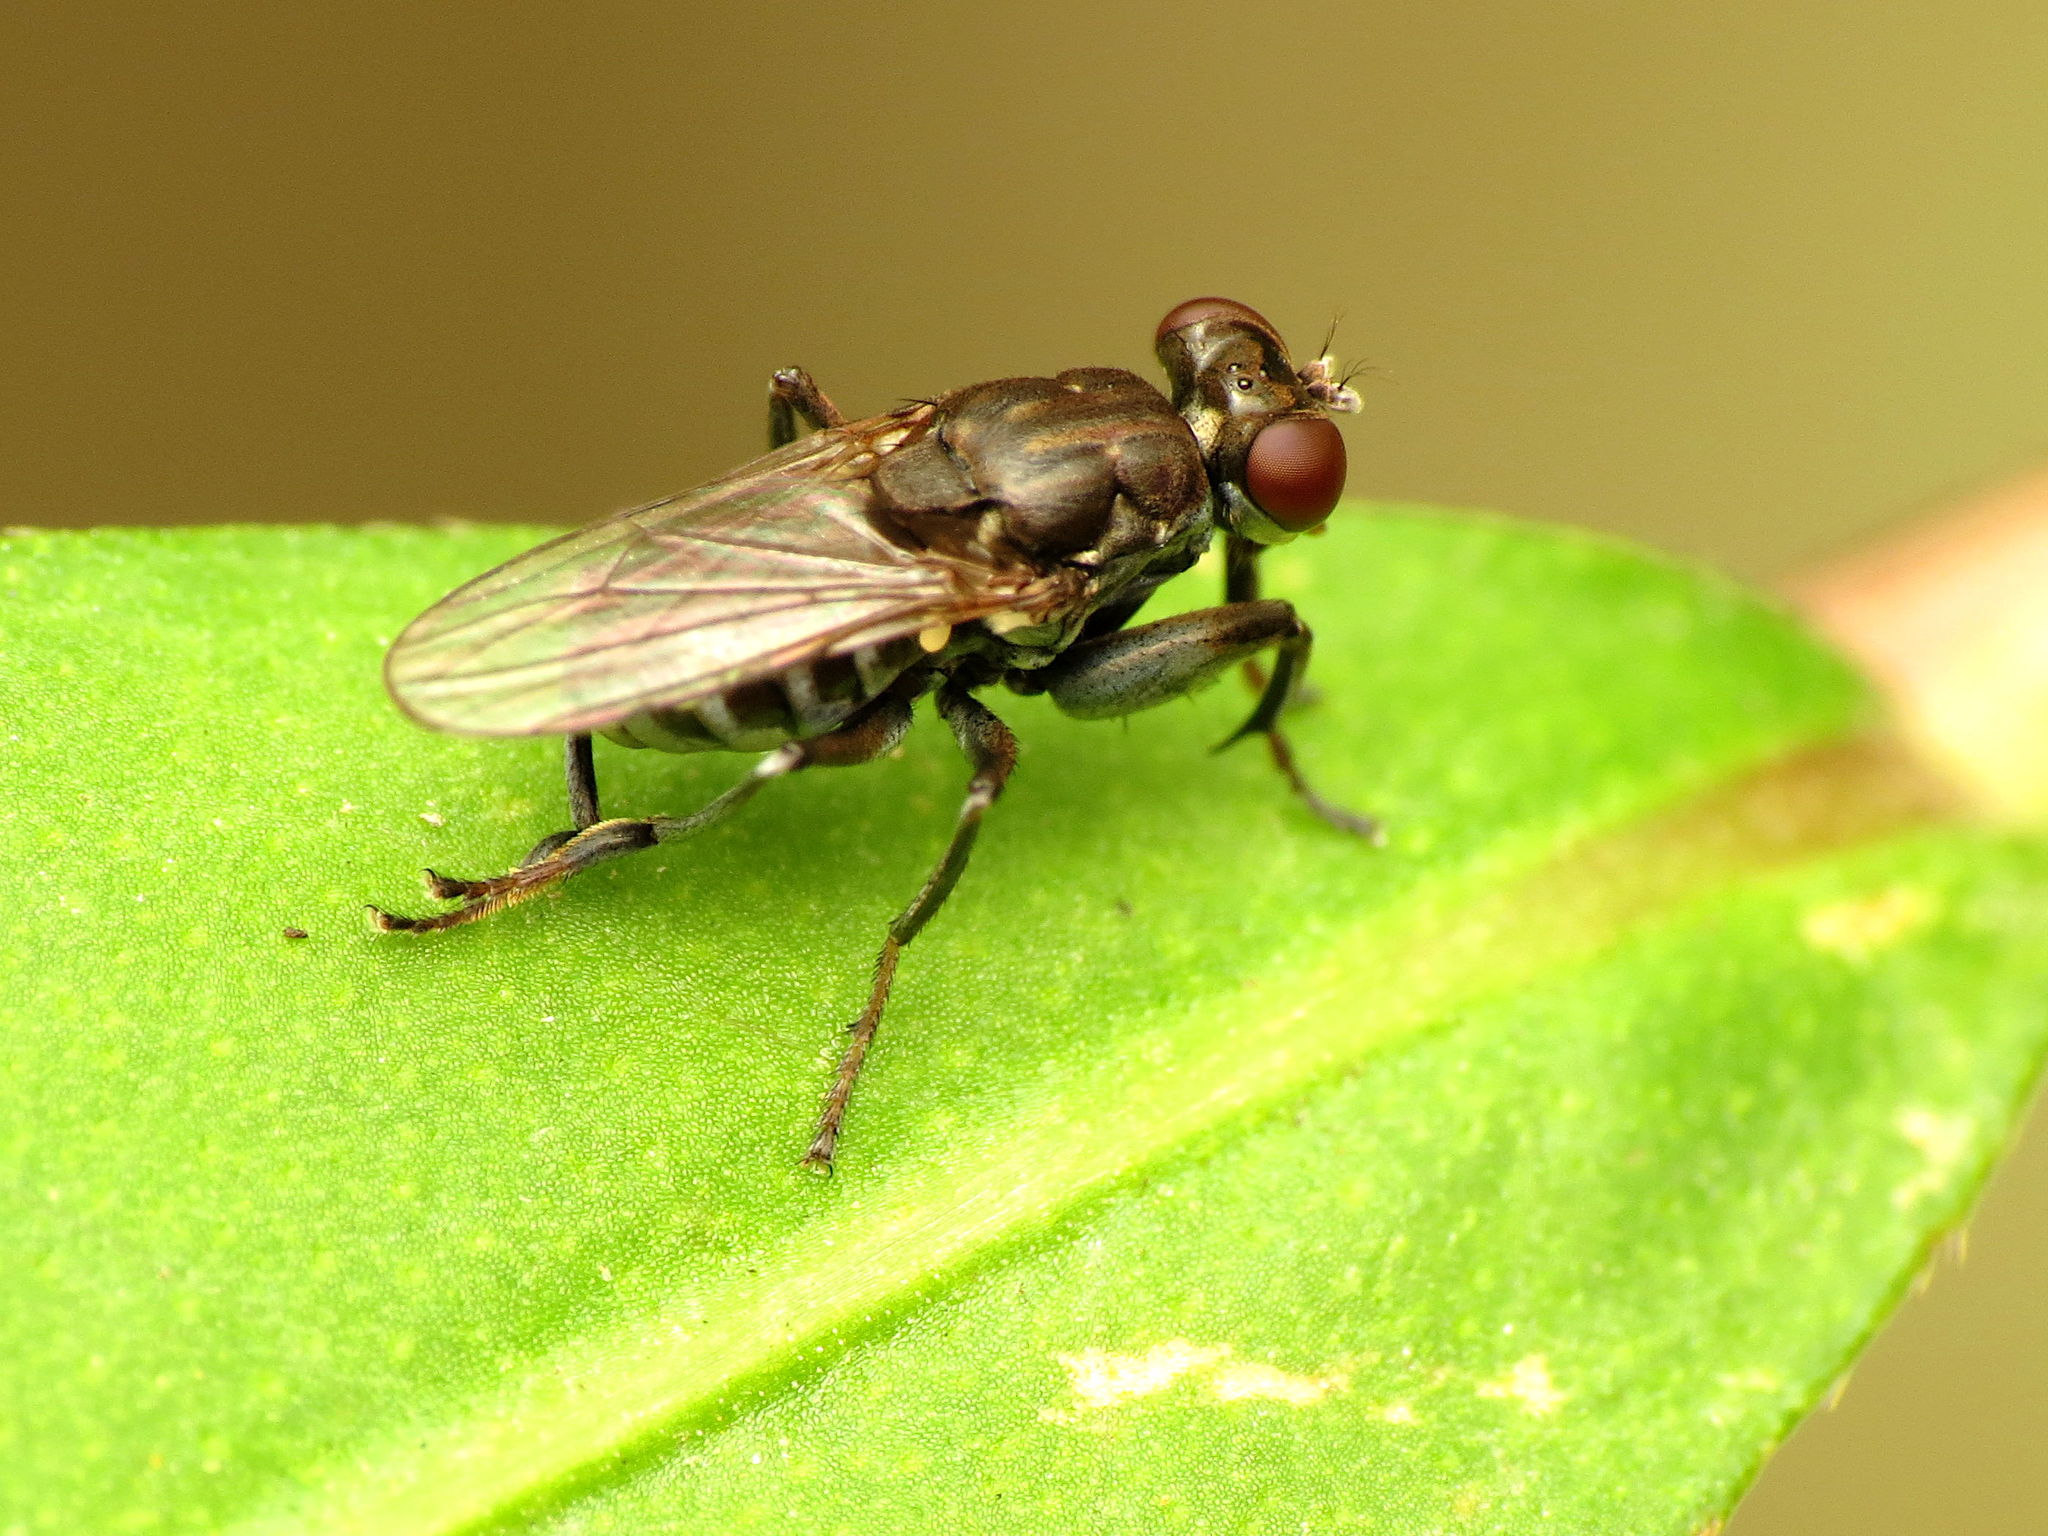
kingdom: Animalia
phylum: Arthropoda
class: Insecta
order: Diptera
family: Ephydridae
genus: Ochthera
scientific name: Ochthera tuberculata
